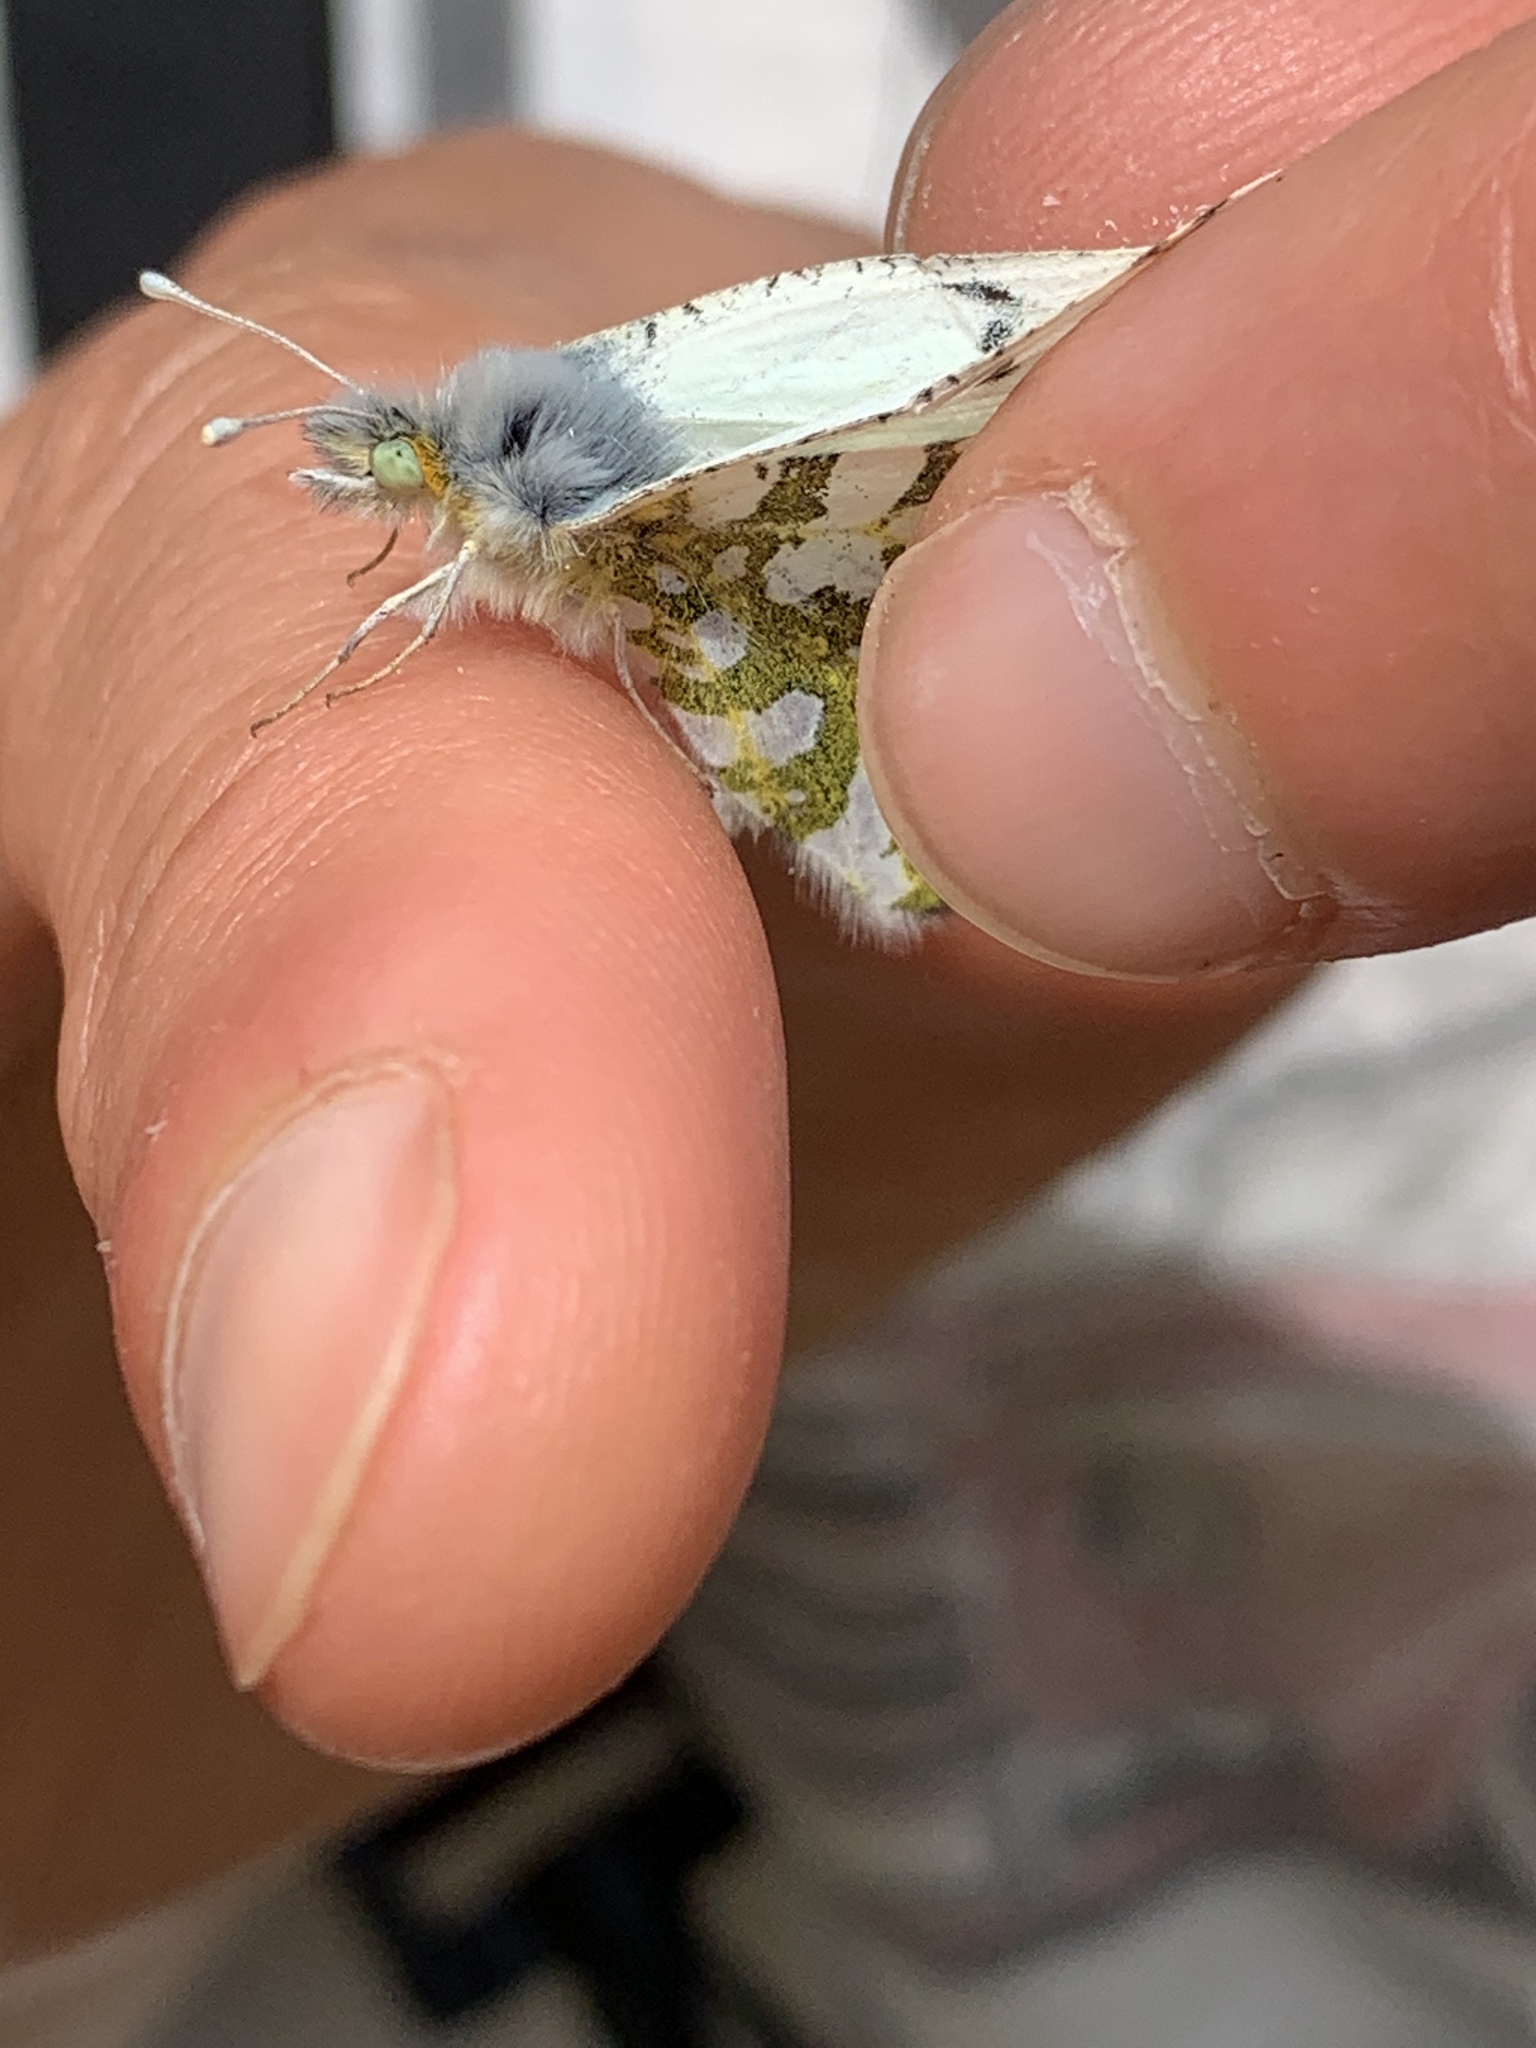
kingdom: Animalia
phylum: Arthropoda
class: Insecta
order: Lepidoptera
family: Pieridae
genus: Euchloe
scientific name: Euchloe ausonides
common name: Creamy marblewing
